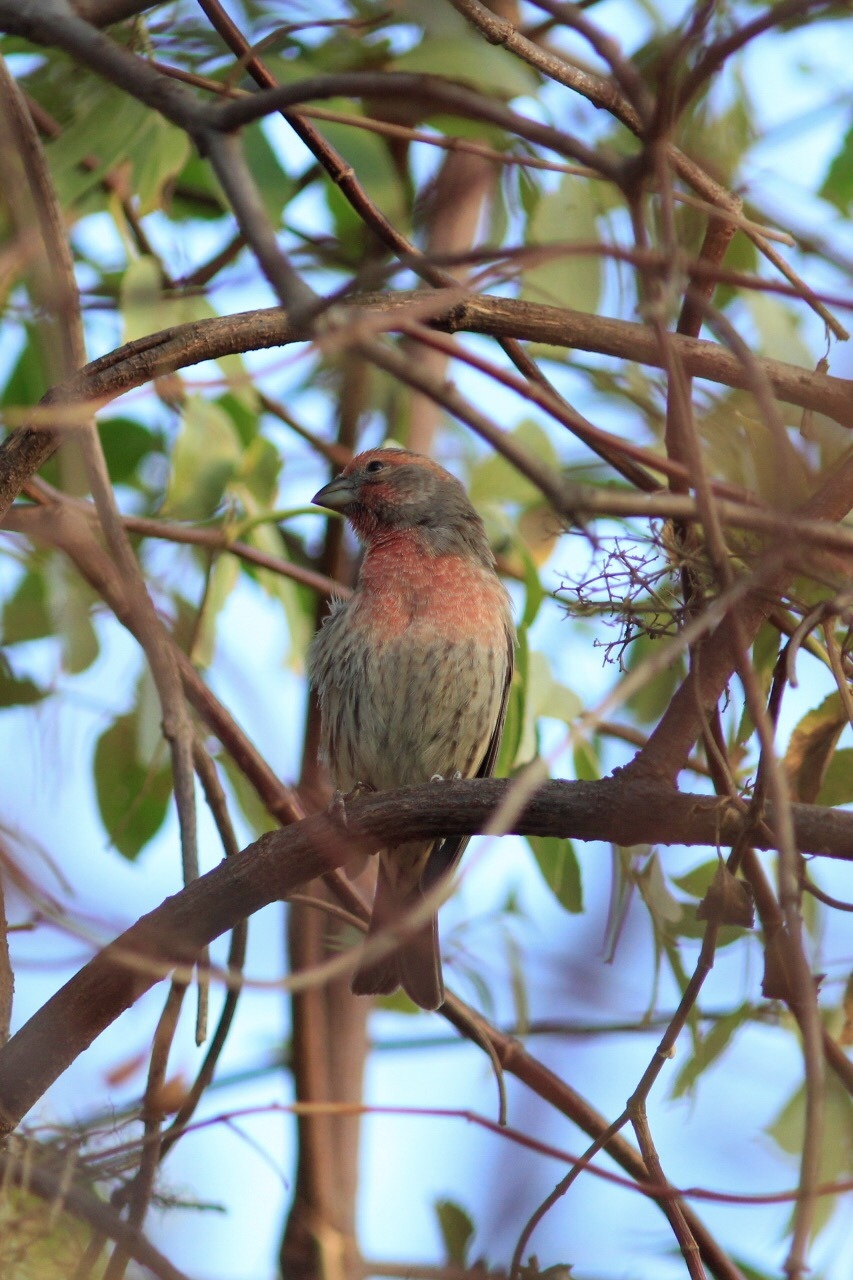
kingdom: Animalia
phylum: Chordata
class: Aves
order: Passeriformes
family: Fringillidae
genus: Haemorhous
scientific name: Haemorhous mexicanus
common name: House finch
